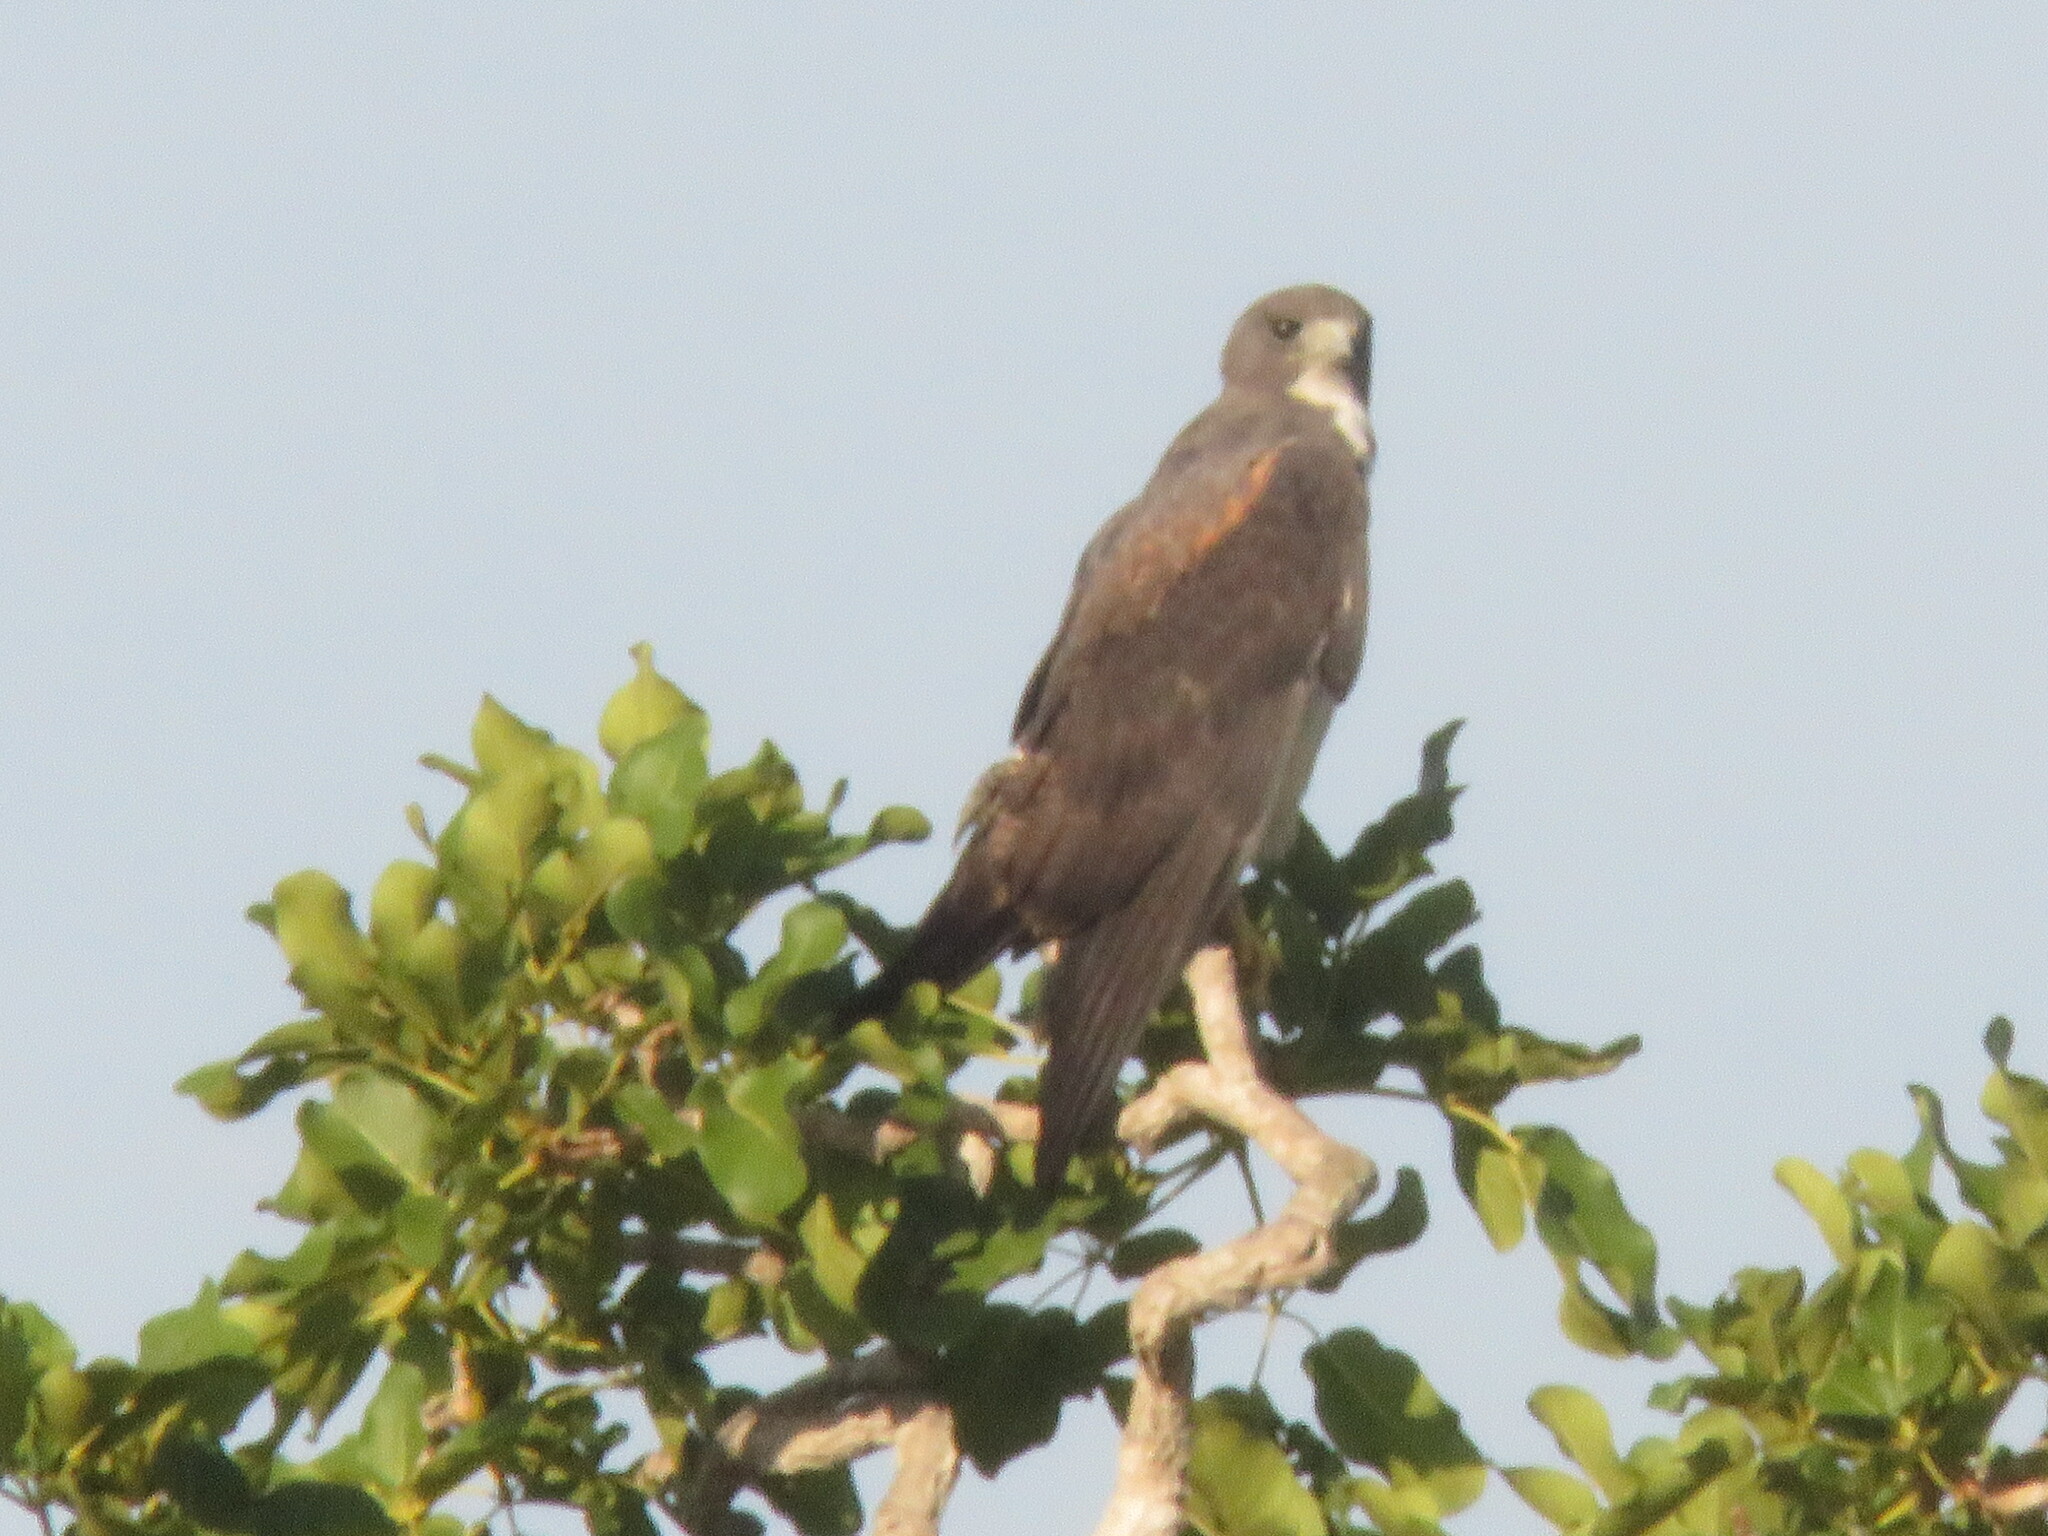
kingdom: Animalia
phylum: Chordata
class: Aves
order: Accipitriformes
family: Accipitridae
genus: Buteo
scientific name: Buteo albicaudatus
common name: White-tailed hawk
